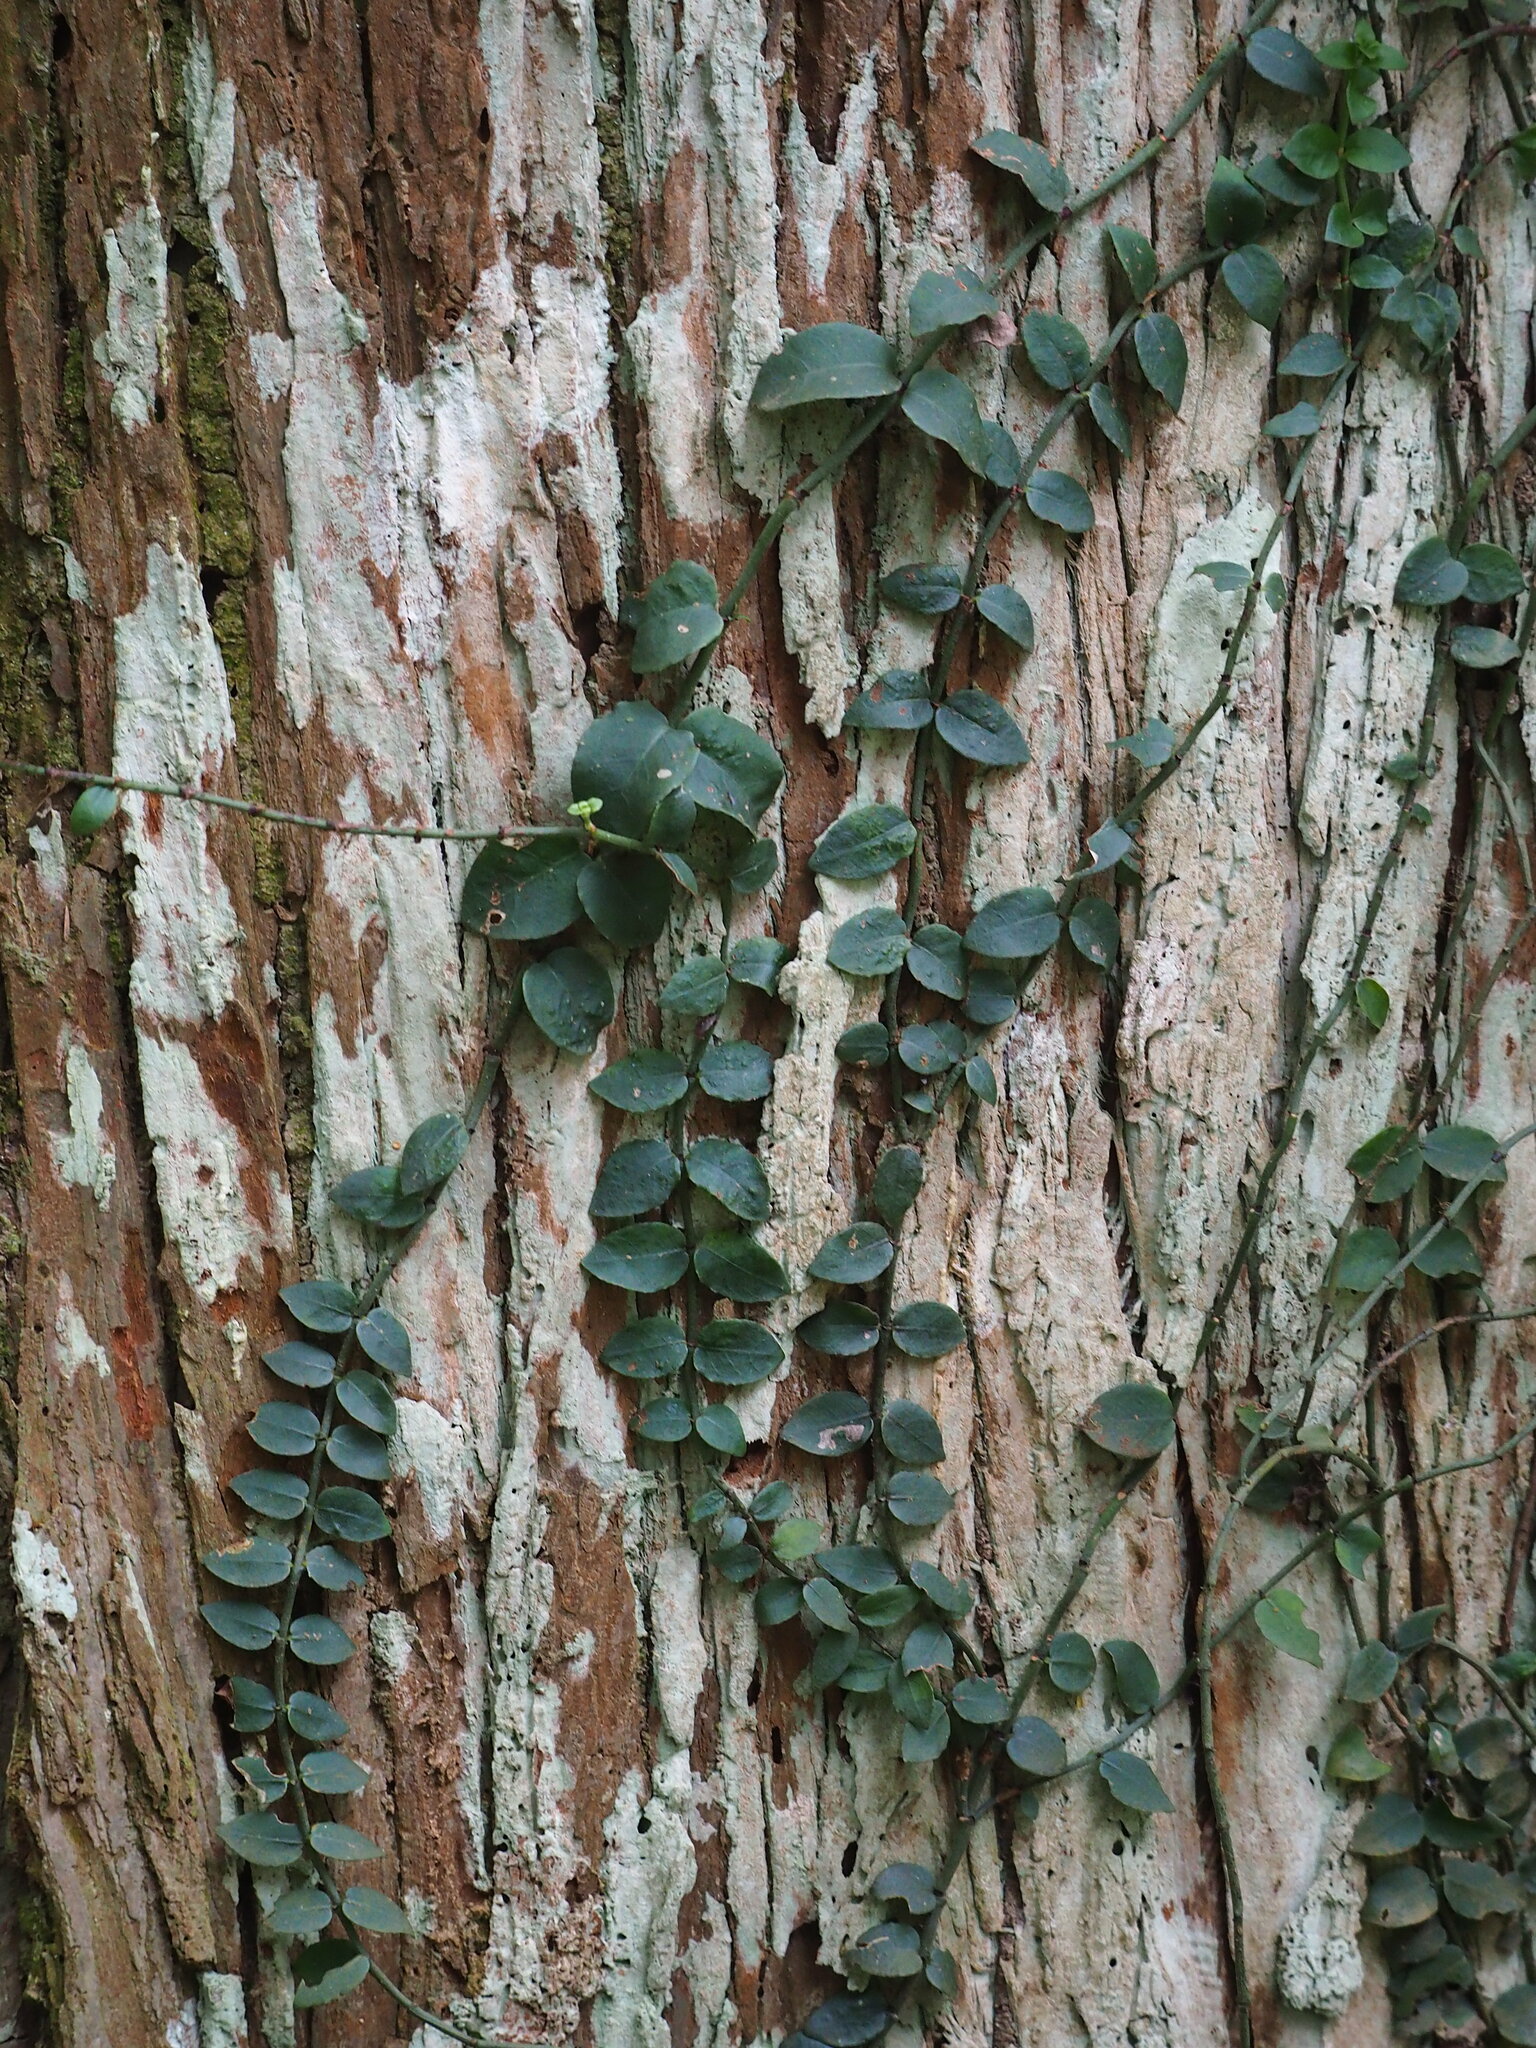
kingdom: Plantae
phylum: Tracheophyta
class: Magnoliopsida
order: Gentianales
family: Rubiaceae
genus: Psychotria
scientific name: Psychotria serpens
